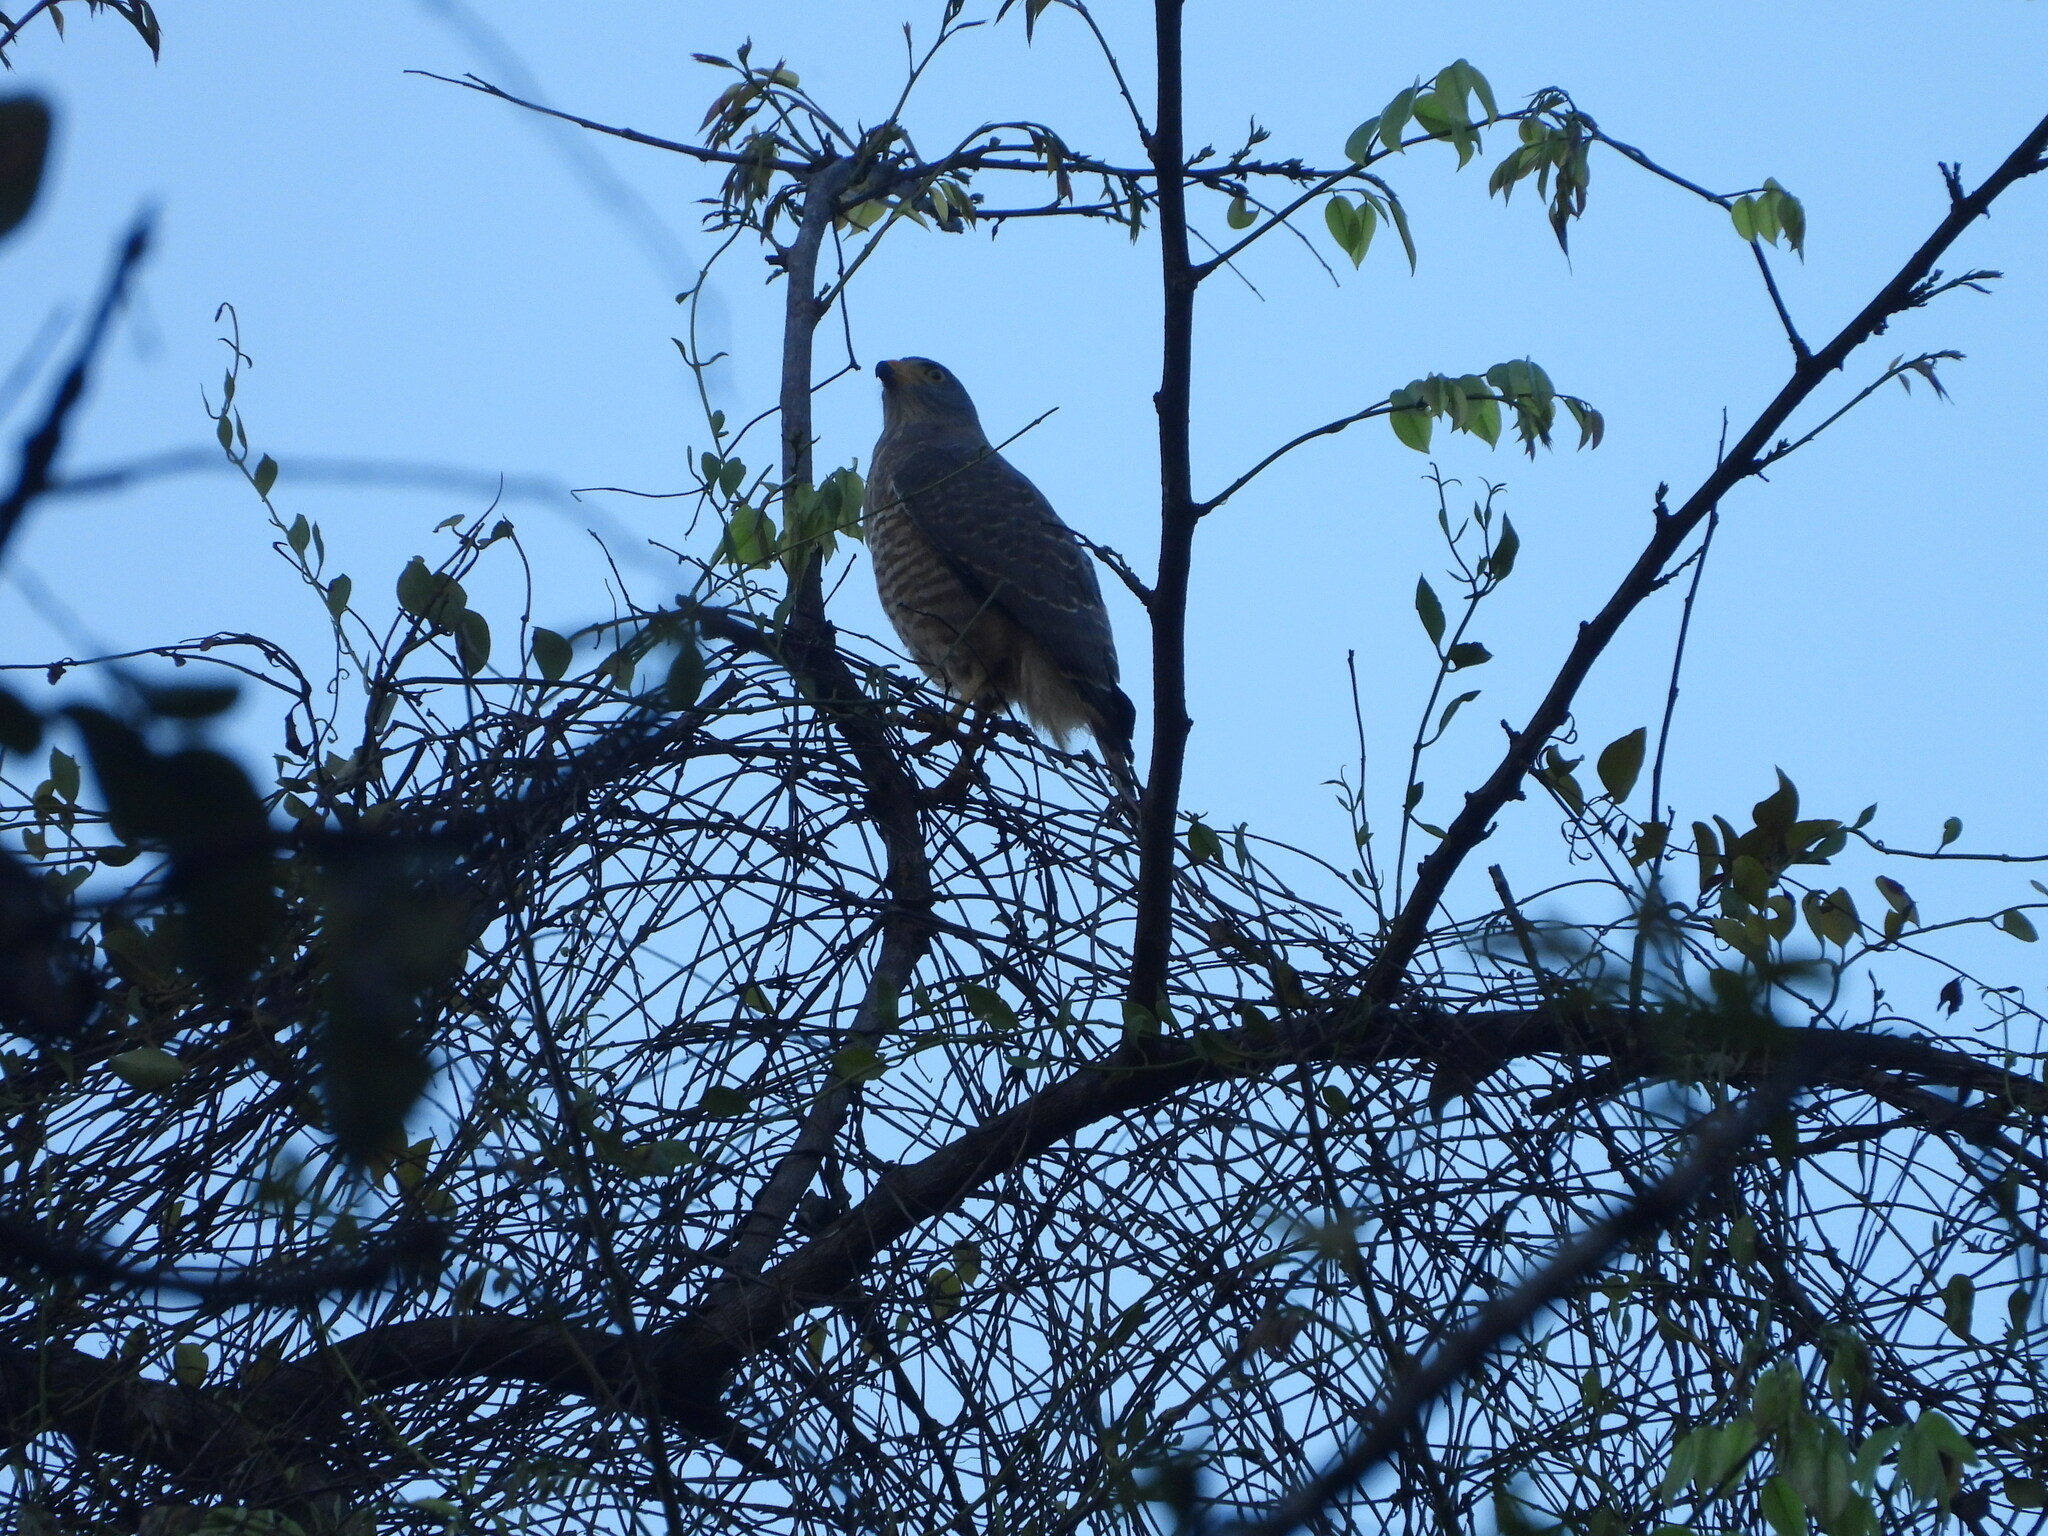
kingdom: Animalia
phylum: Chordata
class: Aves
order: Accipitriformes
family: Accipitridae
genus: Rupornis
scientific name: Rupornis magnirostris
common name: Roadside hawk
